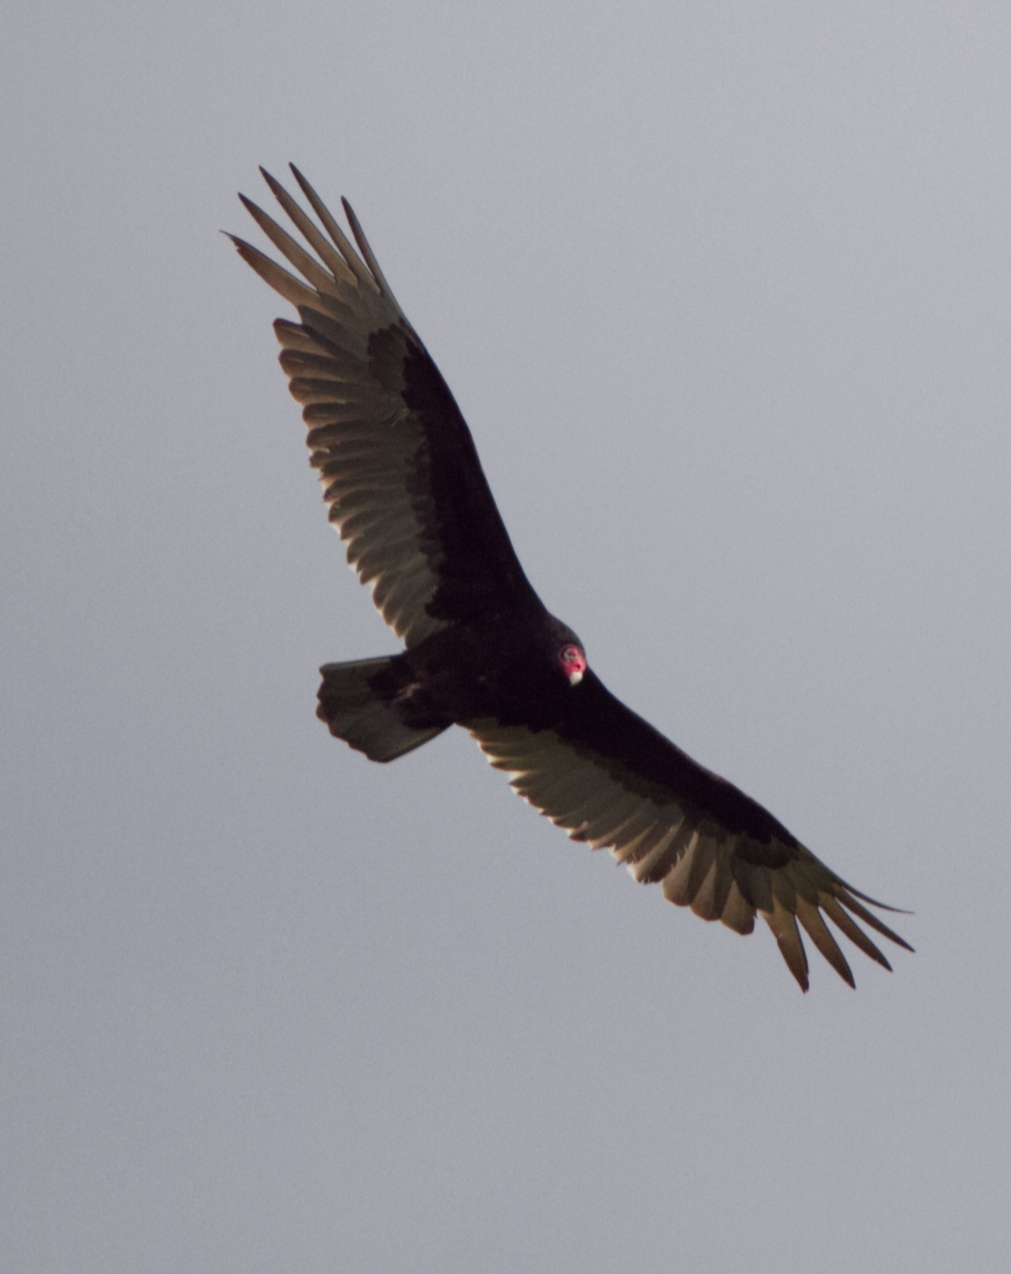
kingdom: Animalia
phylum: Chordata
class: Aves
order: Accipitriformes
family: Cathartidae
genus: Cathartes
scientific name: Cathartes aura
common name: Turkey vulture
